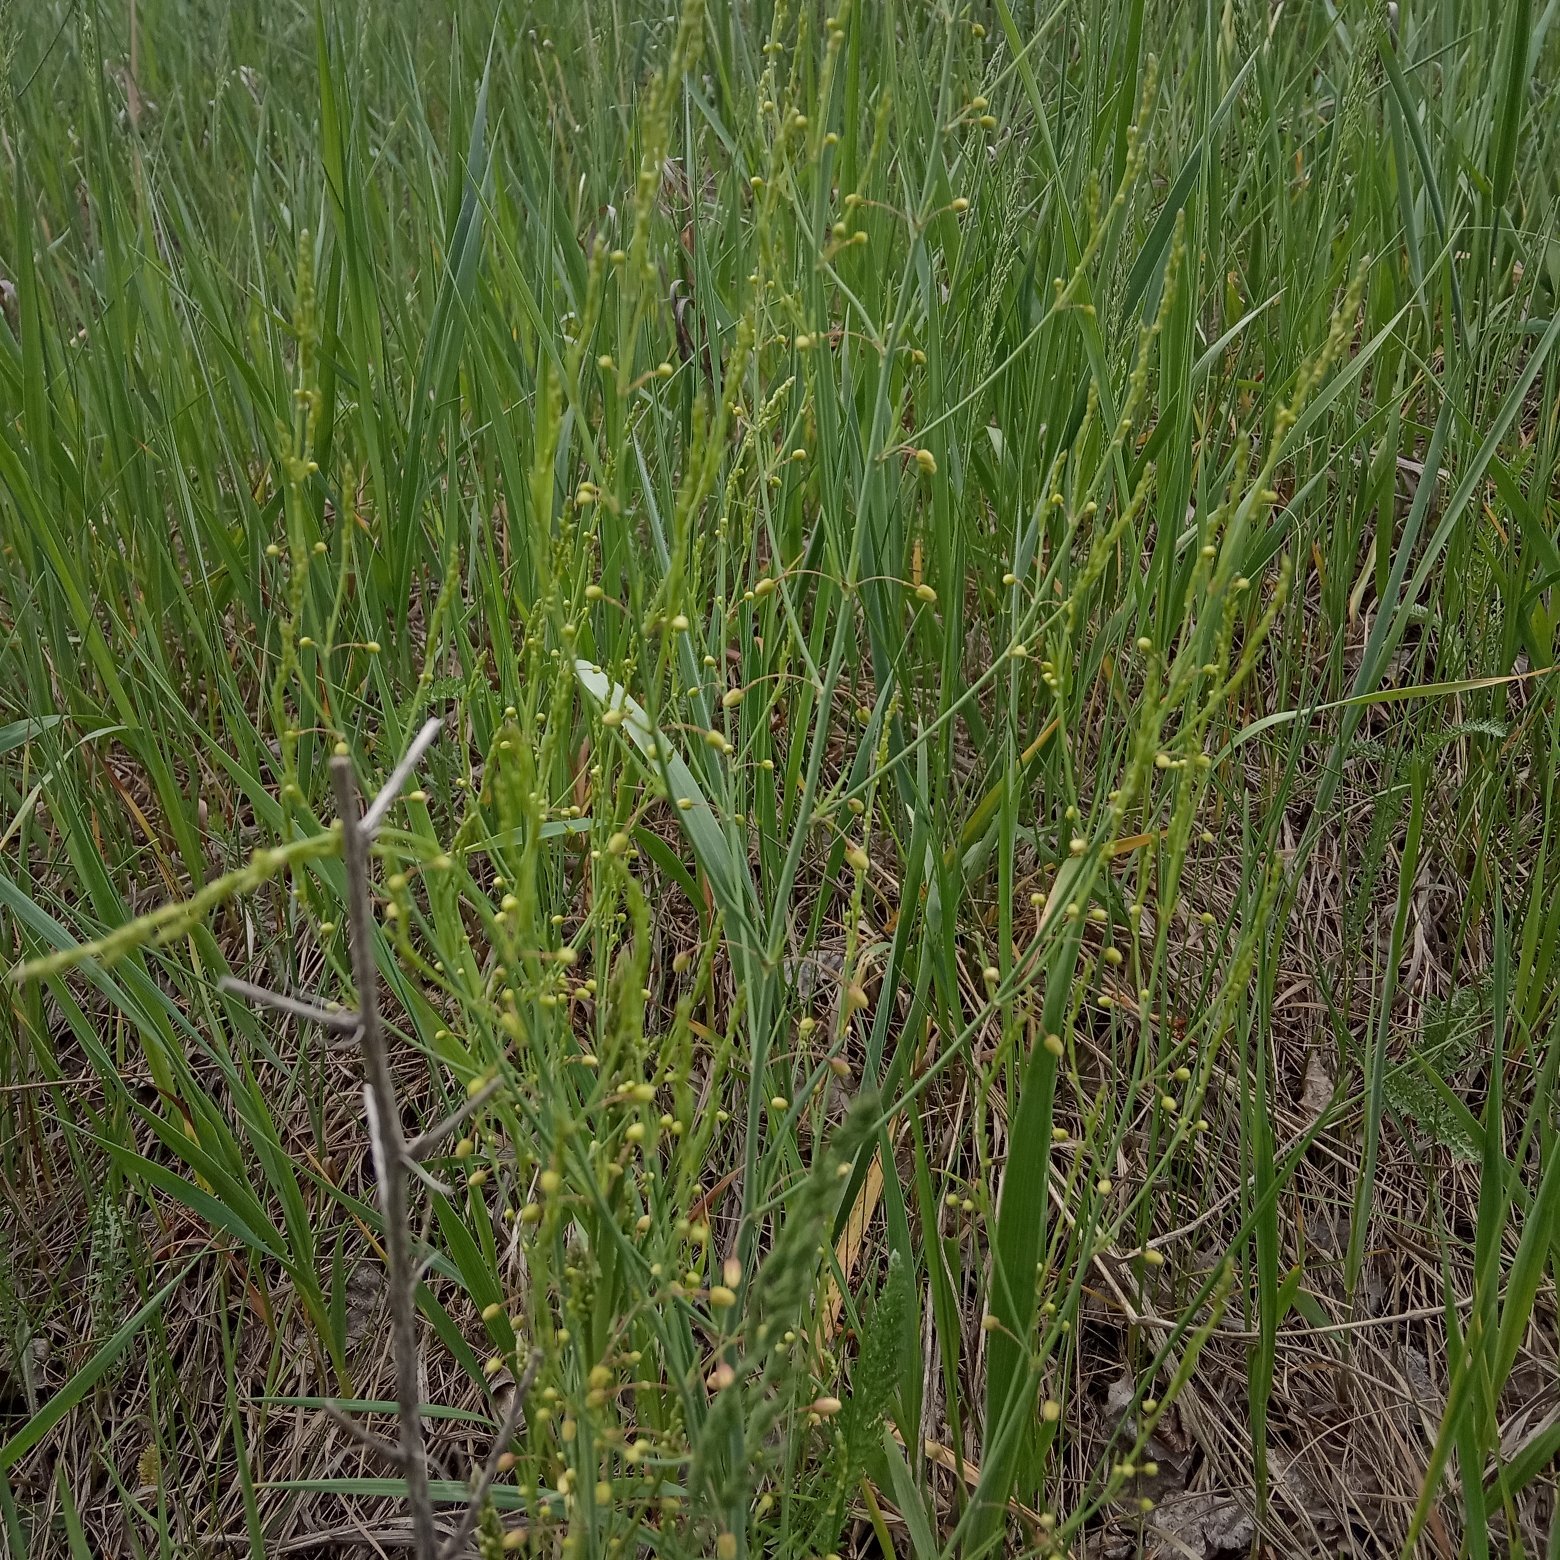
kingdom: Plantae
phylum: Tracheophyta
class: Liliopsida
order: Asparagales
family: Asparagaceae
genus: Asparagus
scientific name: Asparagus officinalis
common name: Garden asparagus
